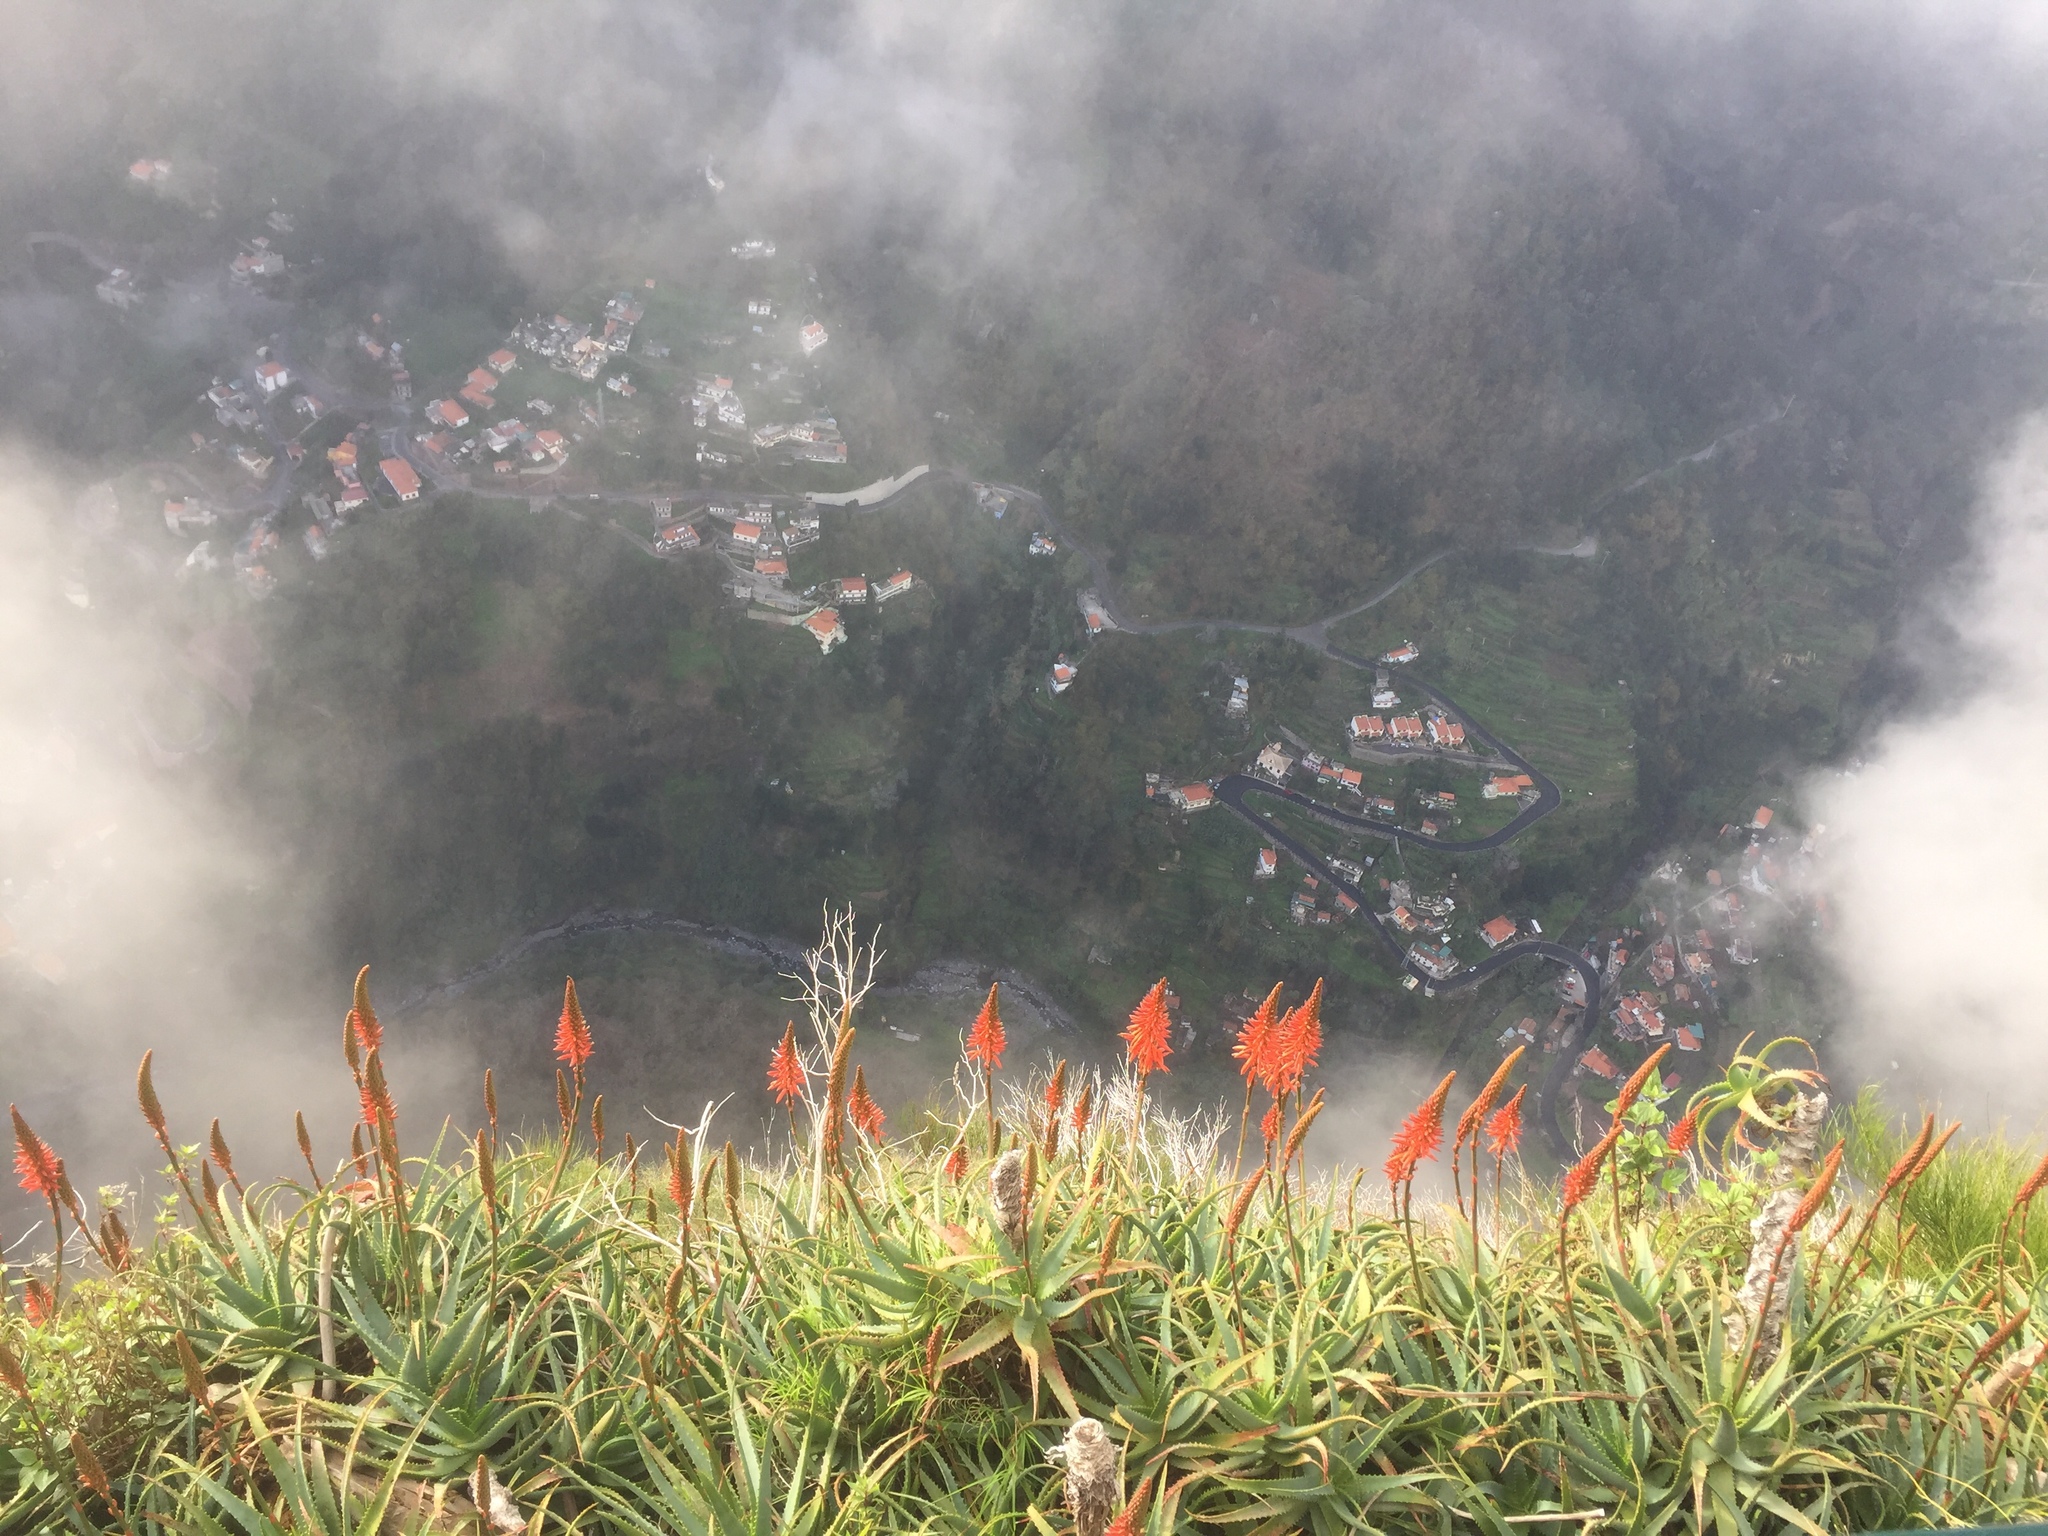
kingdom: Plantae
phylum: Tracheophyta
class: Liliopsida
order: Asparagales
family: Asphodelaceae
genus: Aloe
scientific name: Aloe arborescens
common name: Candelabra aloe
